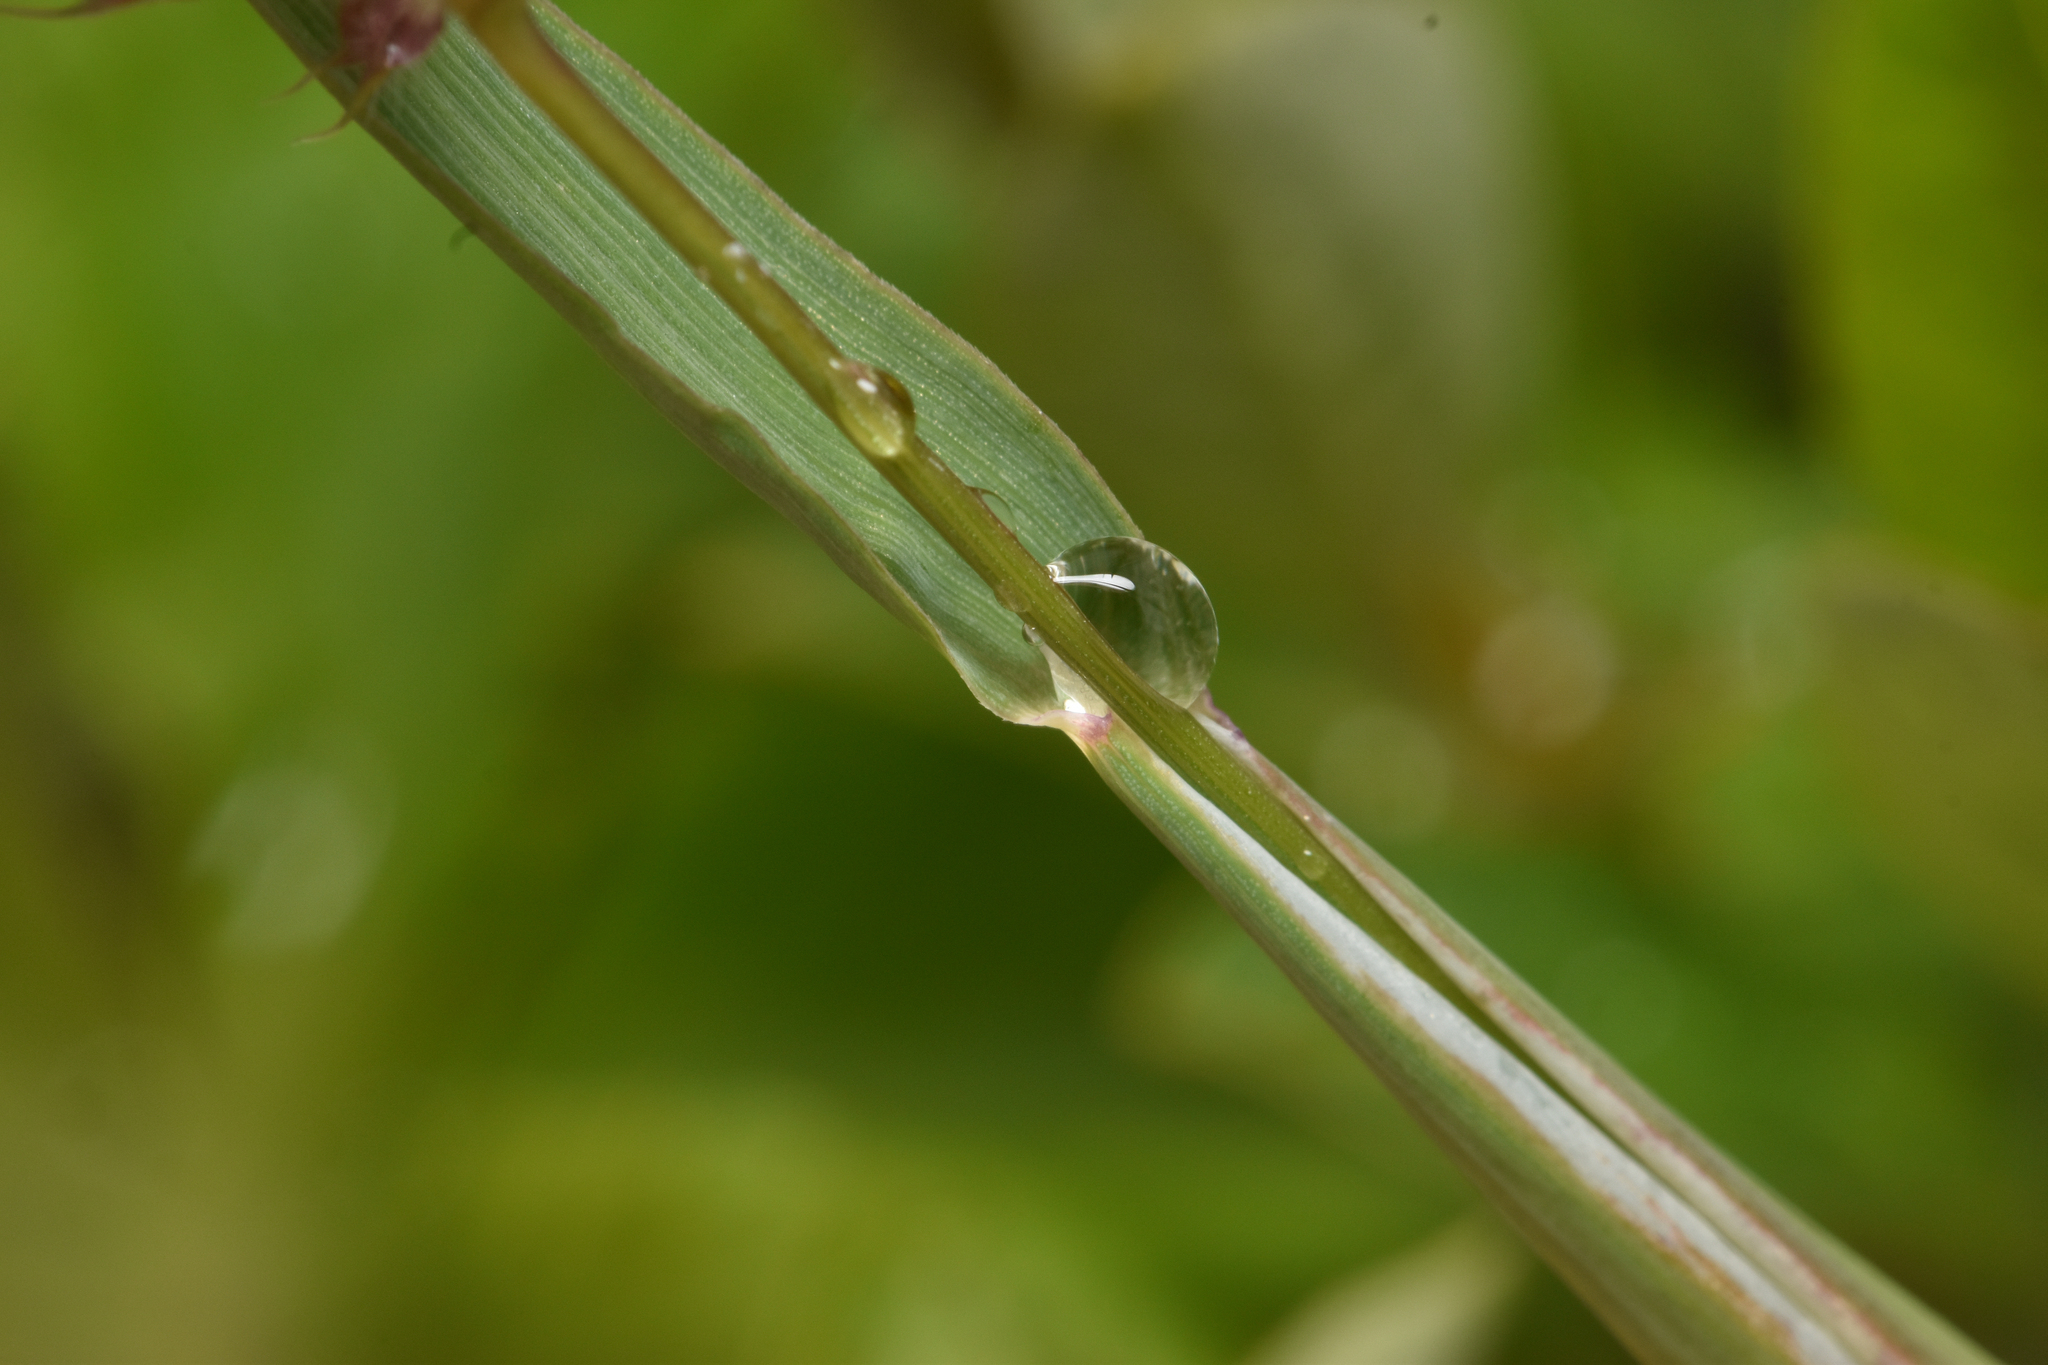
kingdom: Plantae
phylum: Tracheophyta
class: Liliopsida
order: Poales
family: Poaceae
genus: Phleum
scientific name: Phleum alpinum
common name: Alpine cat's-tail
